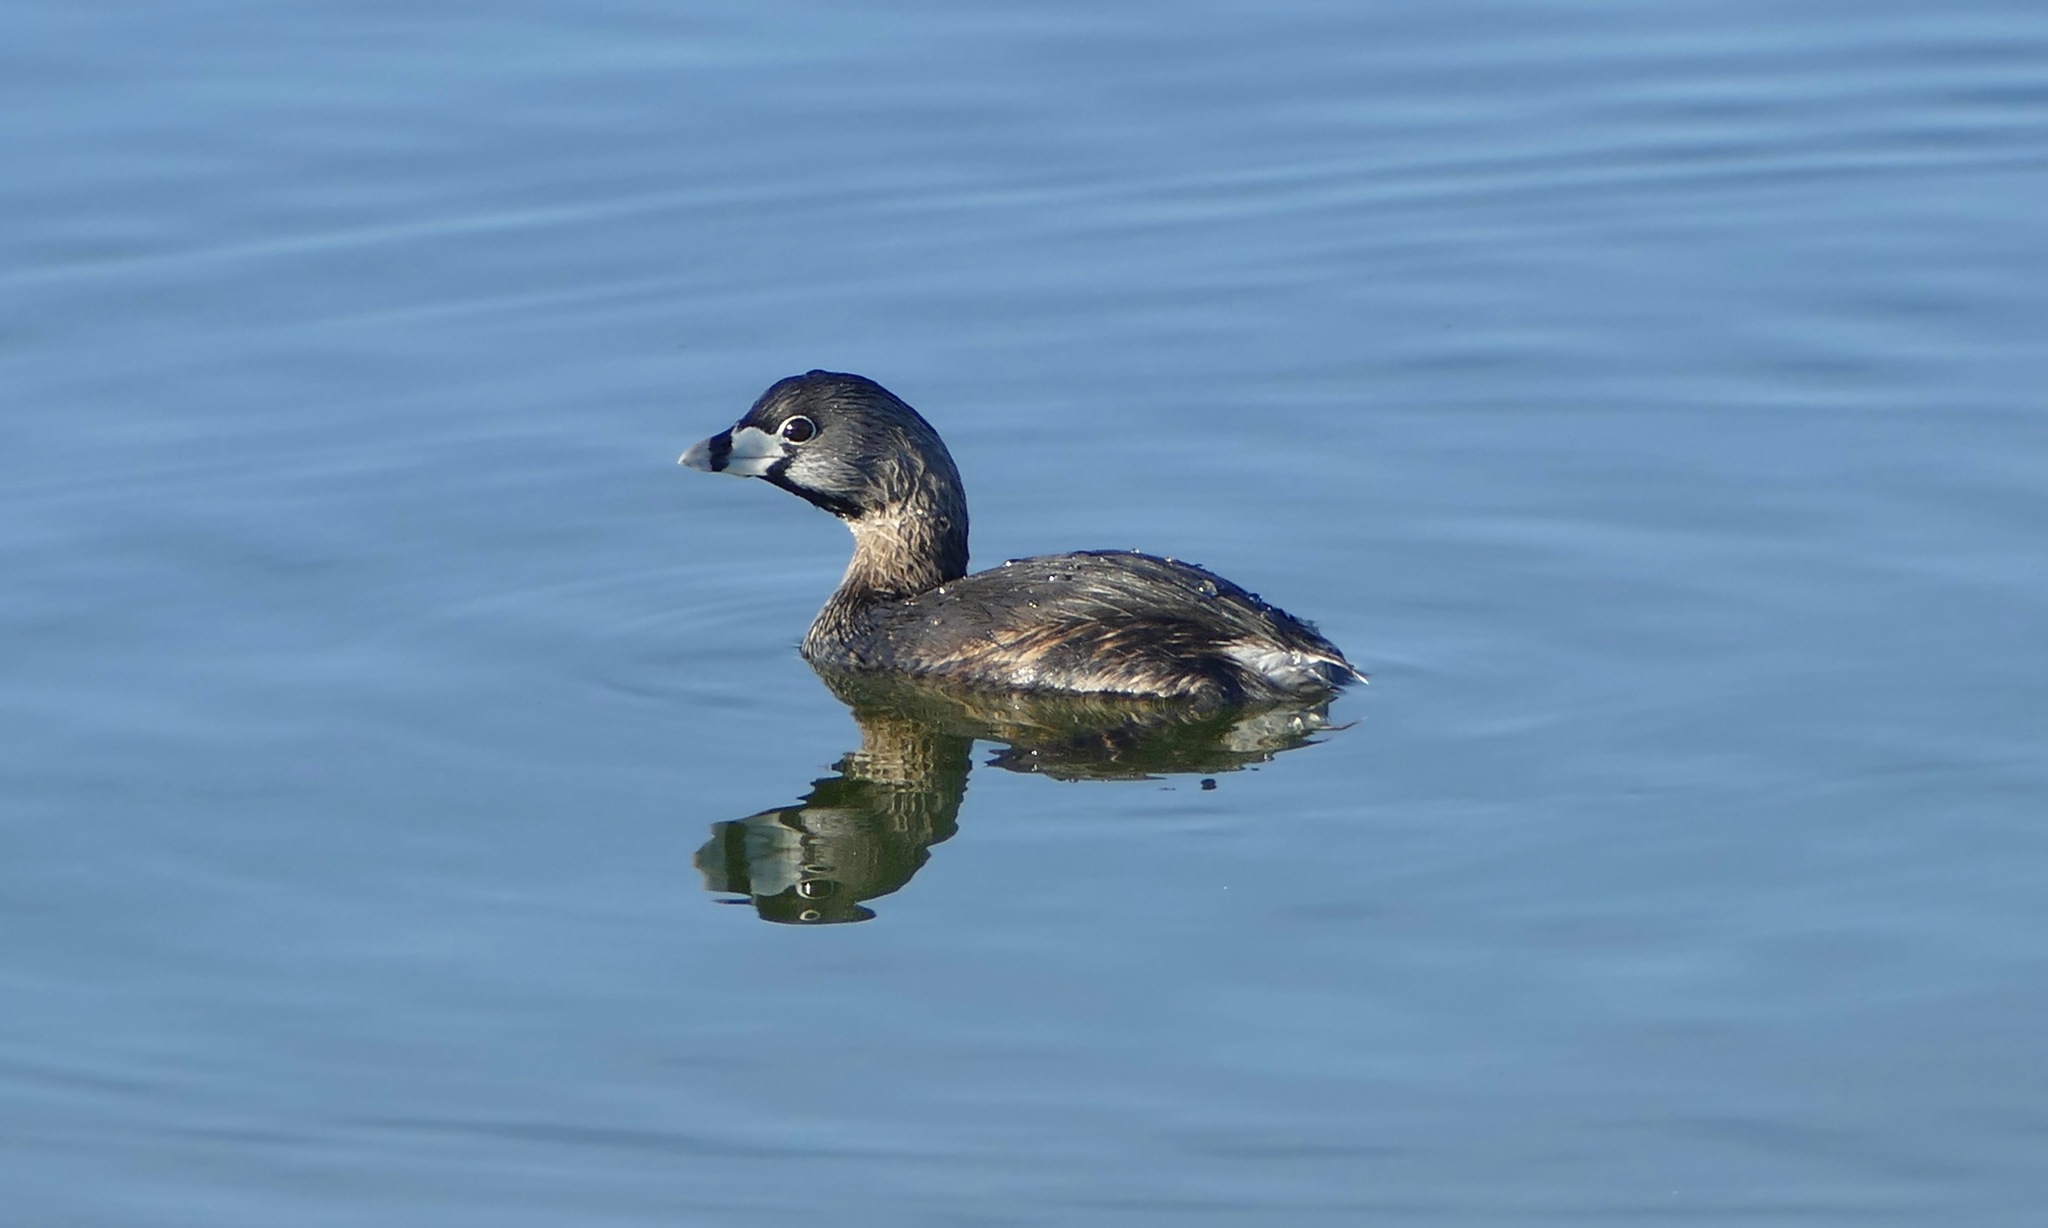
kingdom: Animalia
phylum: Chordata
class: Aves
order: Podicipediformes
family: Podicipedidae
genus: Podilymbus
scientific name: Podilymbus podiceps
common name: Pied-billed grebe
